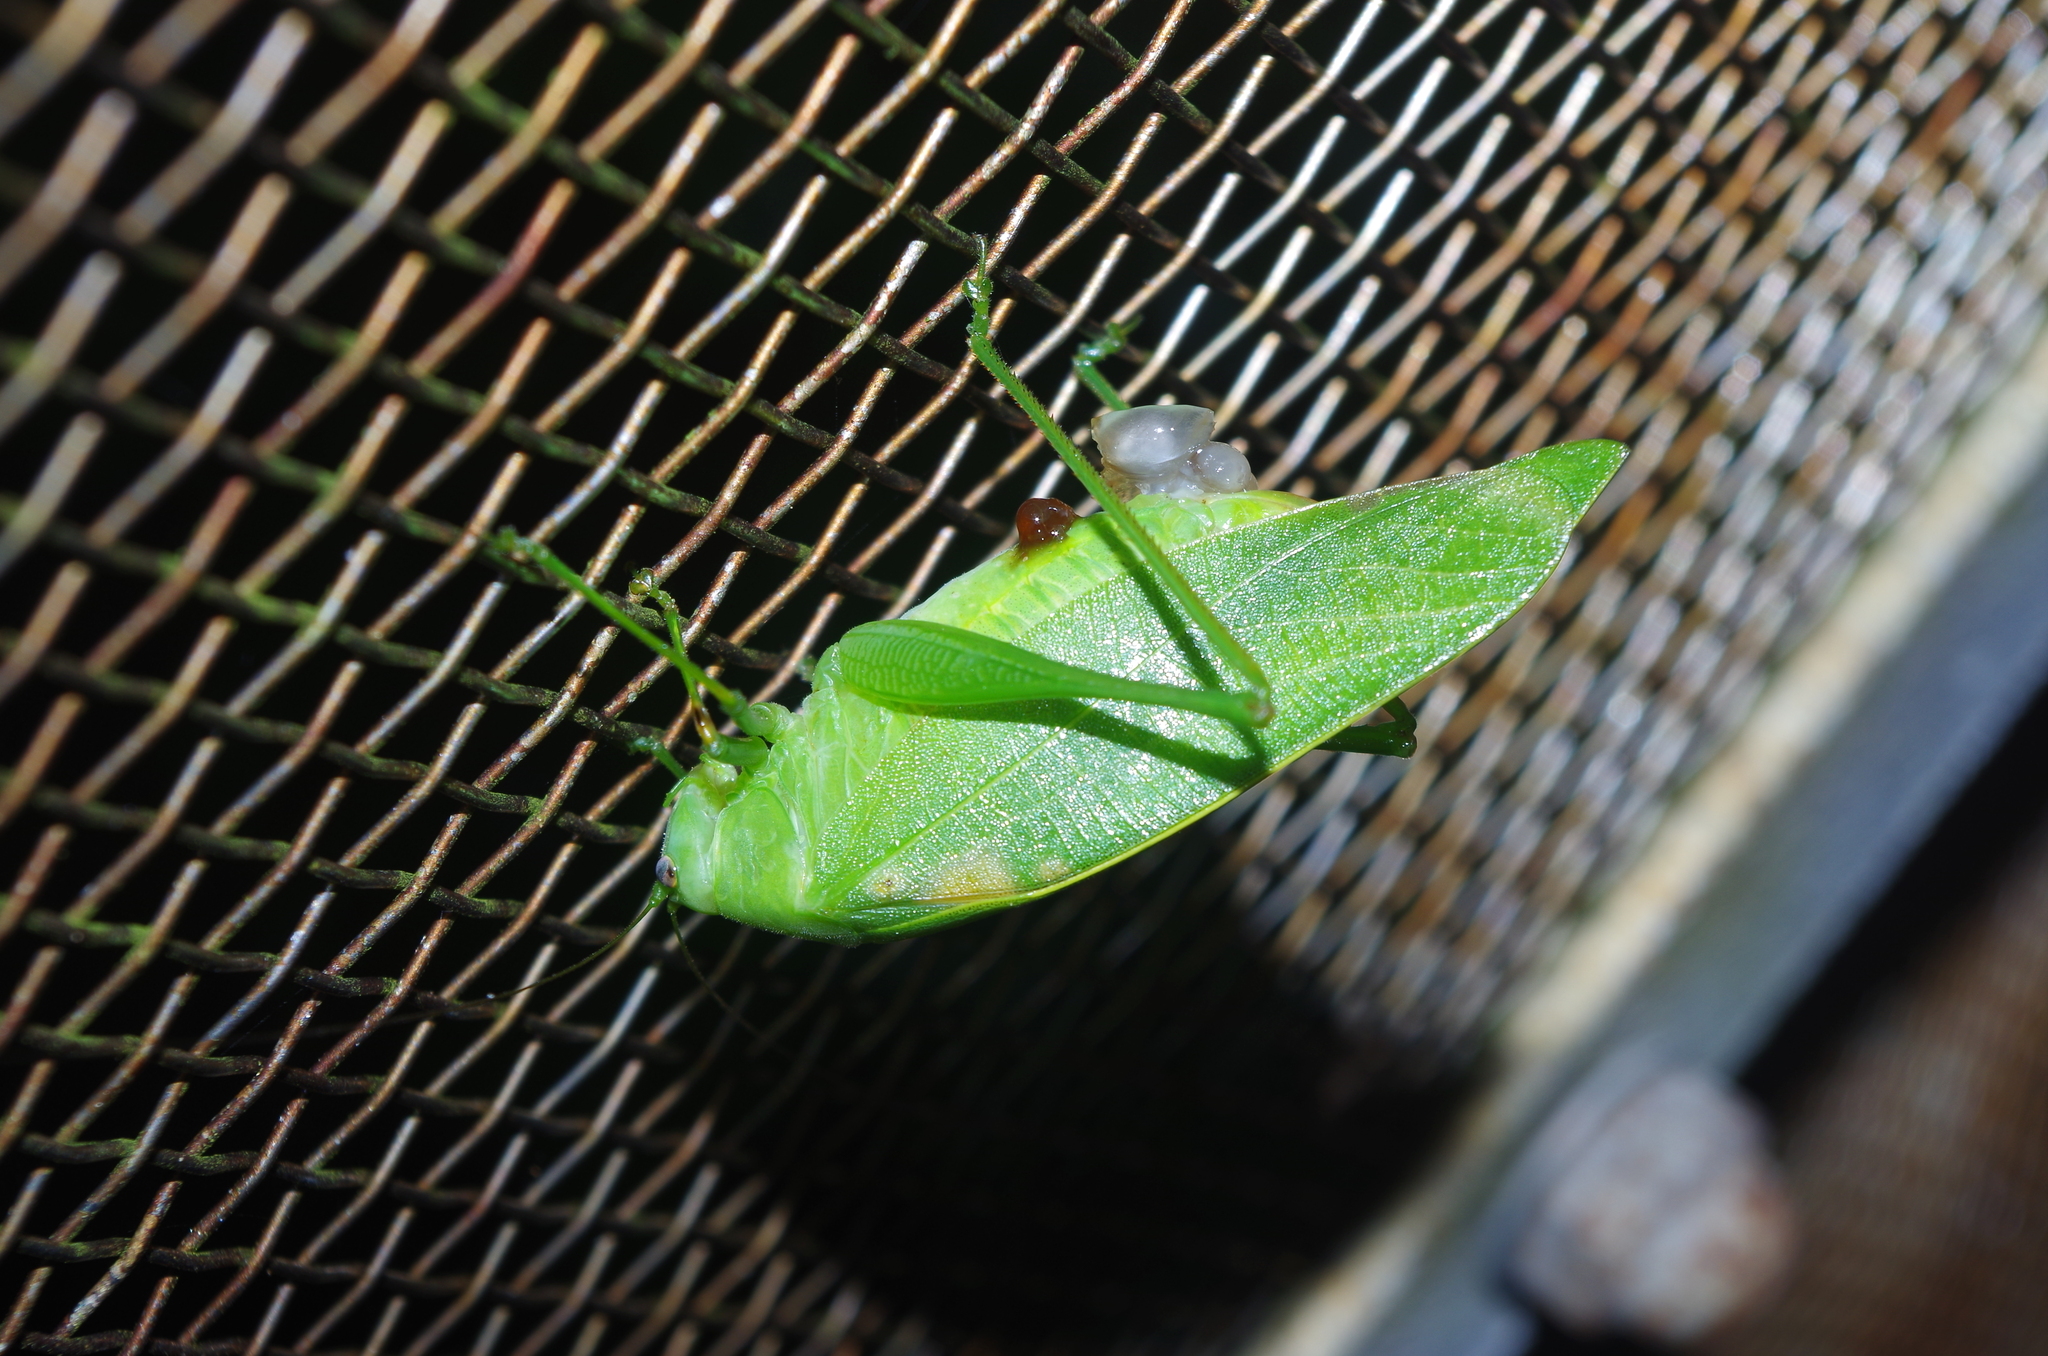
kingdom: Animalia
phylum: Arthropoda
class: Insecta
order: Orthoptera
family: Tettigoniidae
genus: Phaulula
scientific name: Phaulula daitoensis
